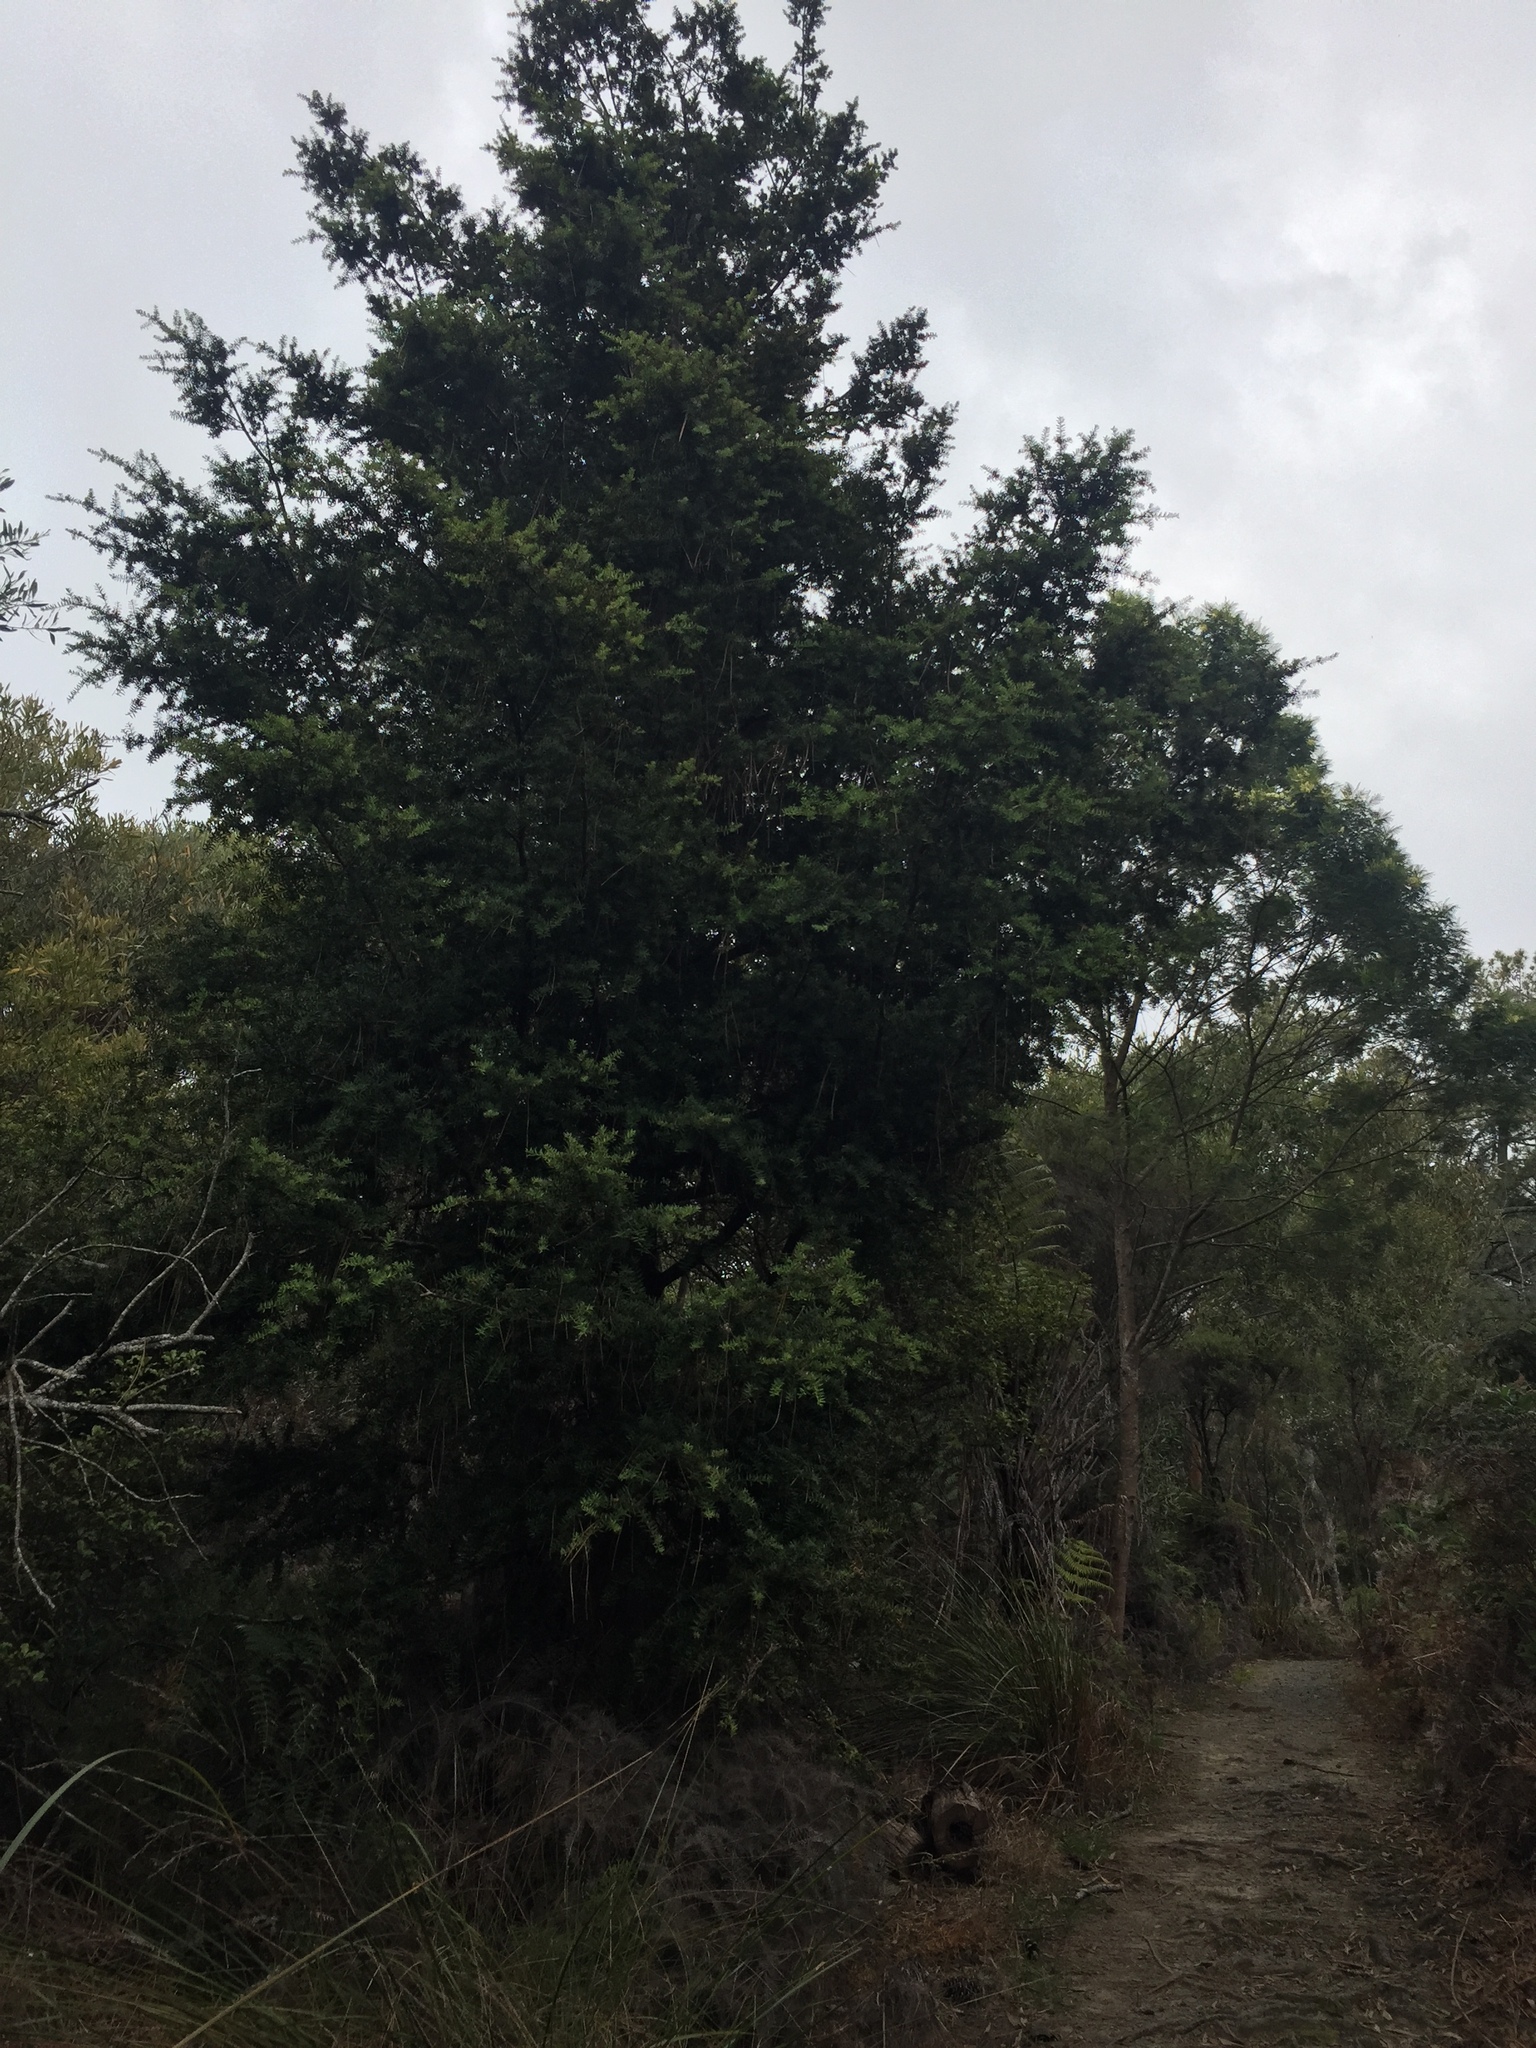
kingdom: Plantae
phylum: Tracheophyta
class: Pinopsida
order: Pinales
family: Podocarpaceae
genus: Podocarpus
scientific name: Podocarpus totara
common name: Totara
